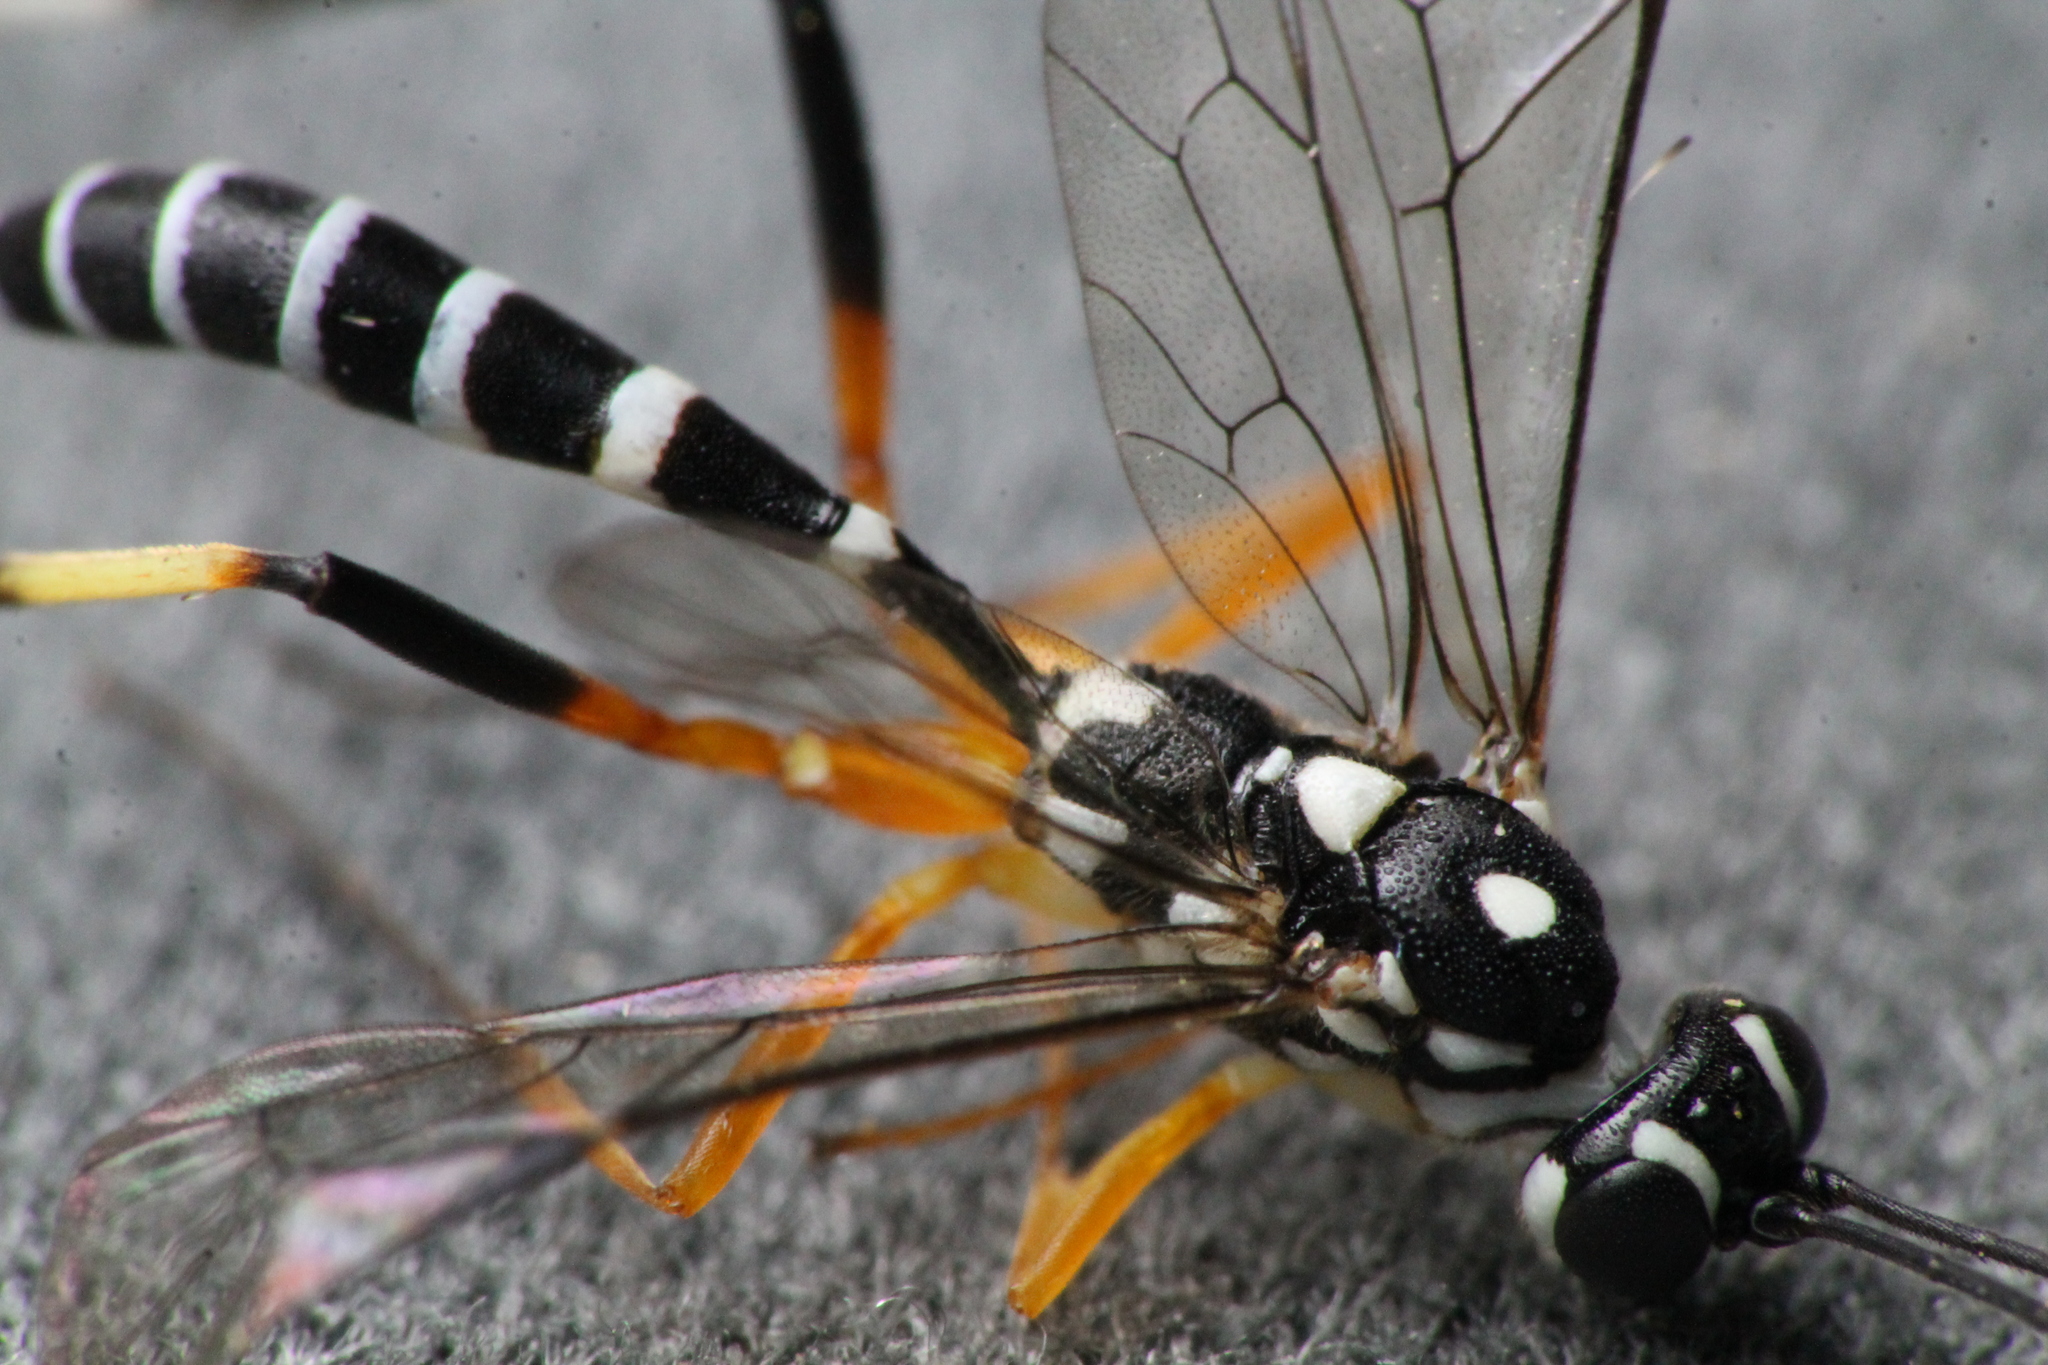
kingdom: Animalia
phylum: Arthropoda
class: Insecta
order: Hymenoptera
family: Ichneumonidae
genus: Xanthocryptus
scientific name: Xanthocryptus novozealandicus
